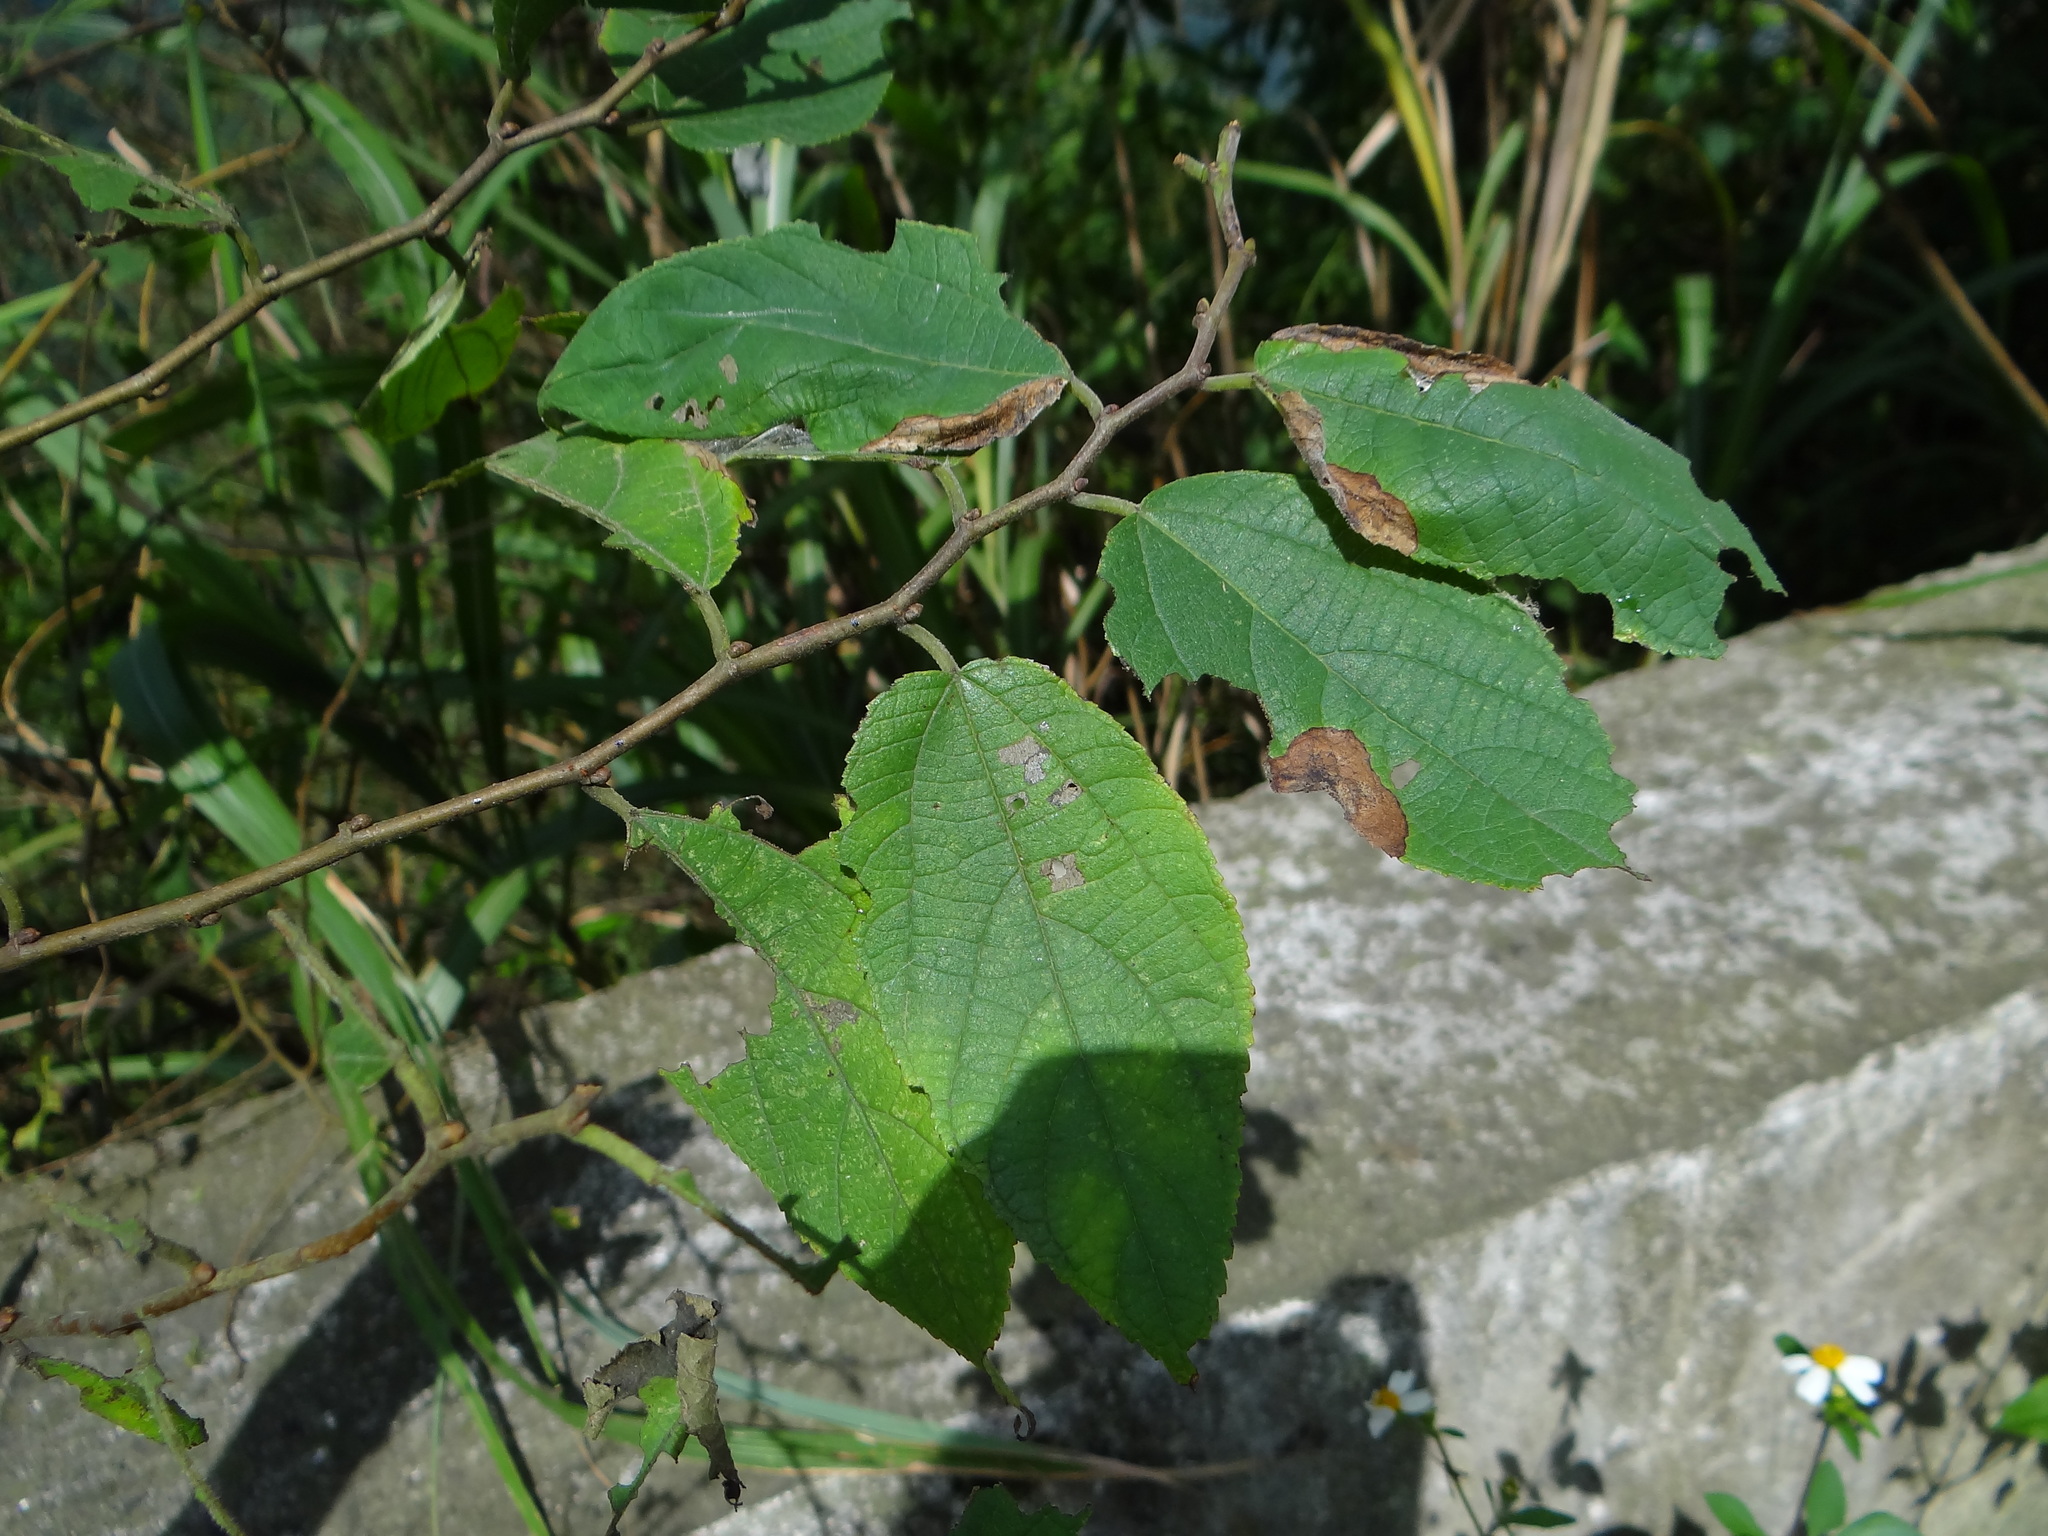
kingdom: Plantae
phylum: Tracheophyta
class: Magnoliopsida
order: Rosales
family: Moraceae
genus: Broussonetia
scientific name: Broussonetia monoica
